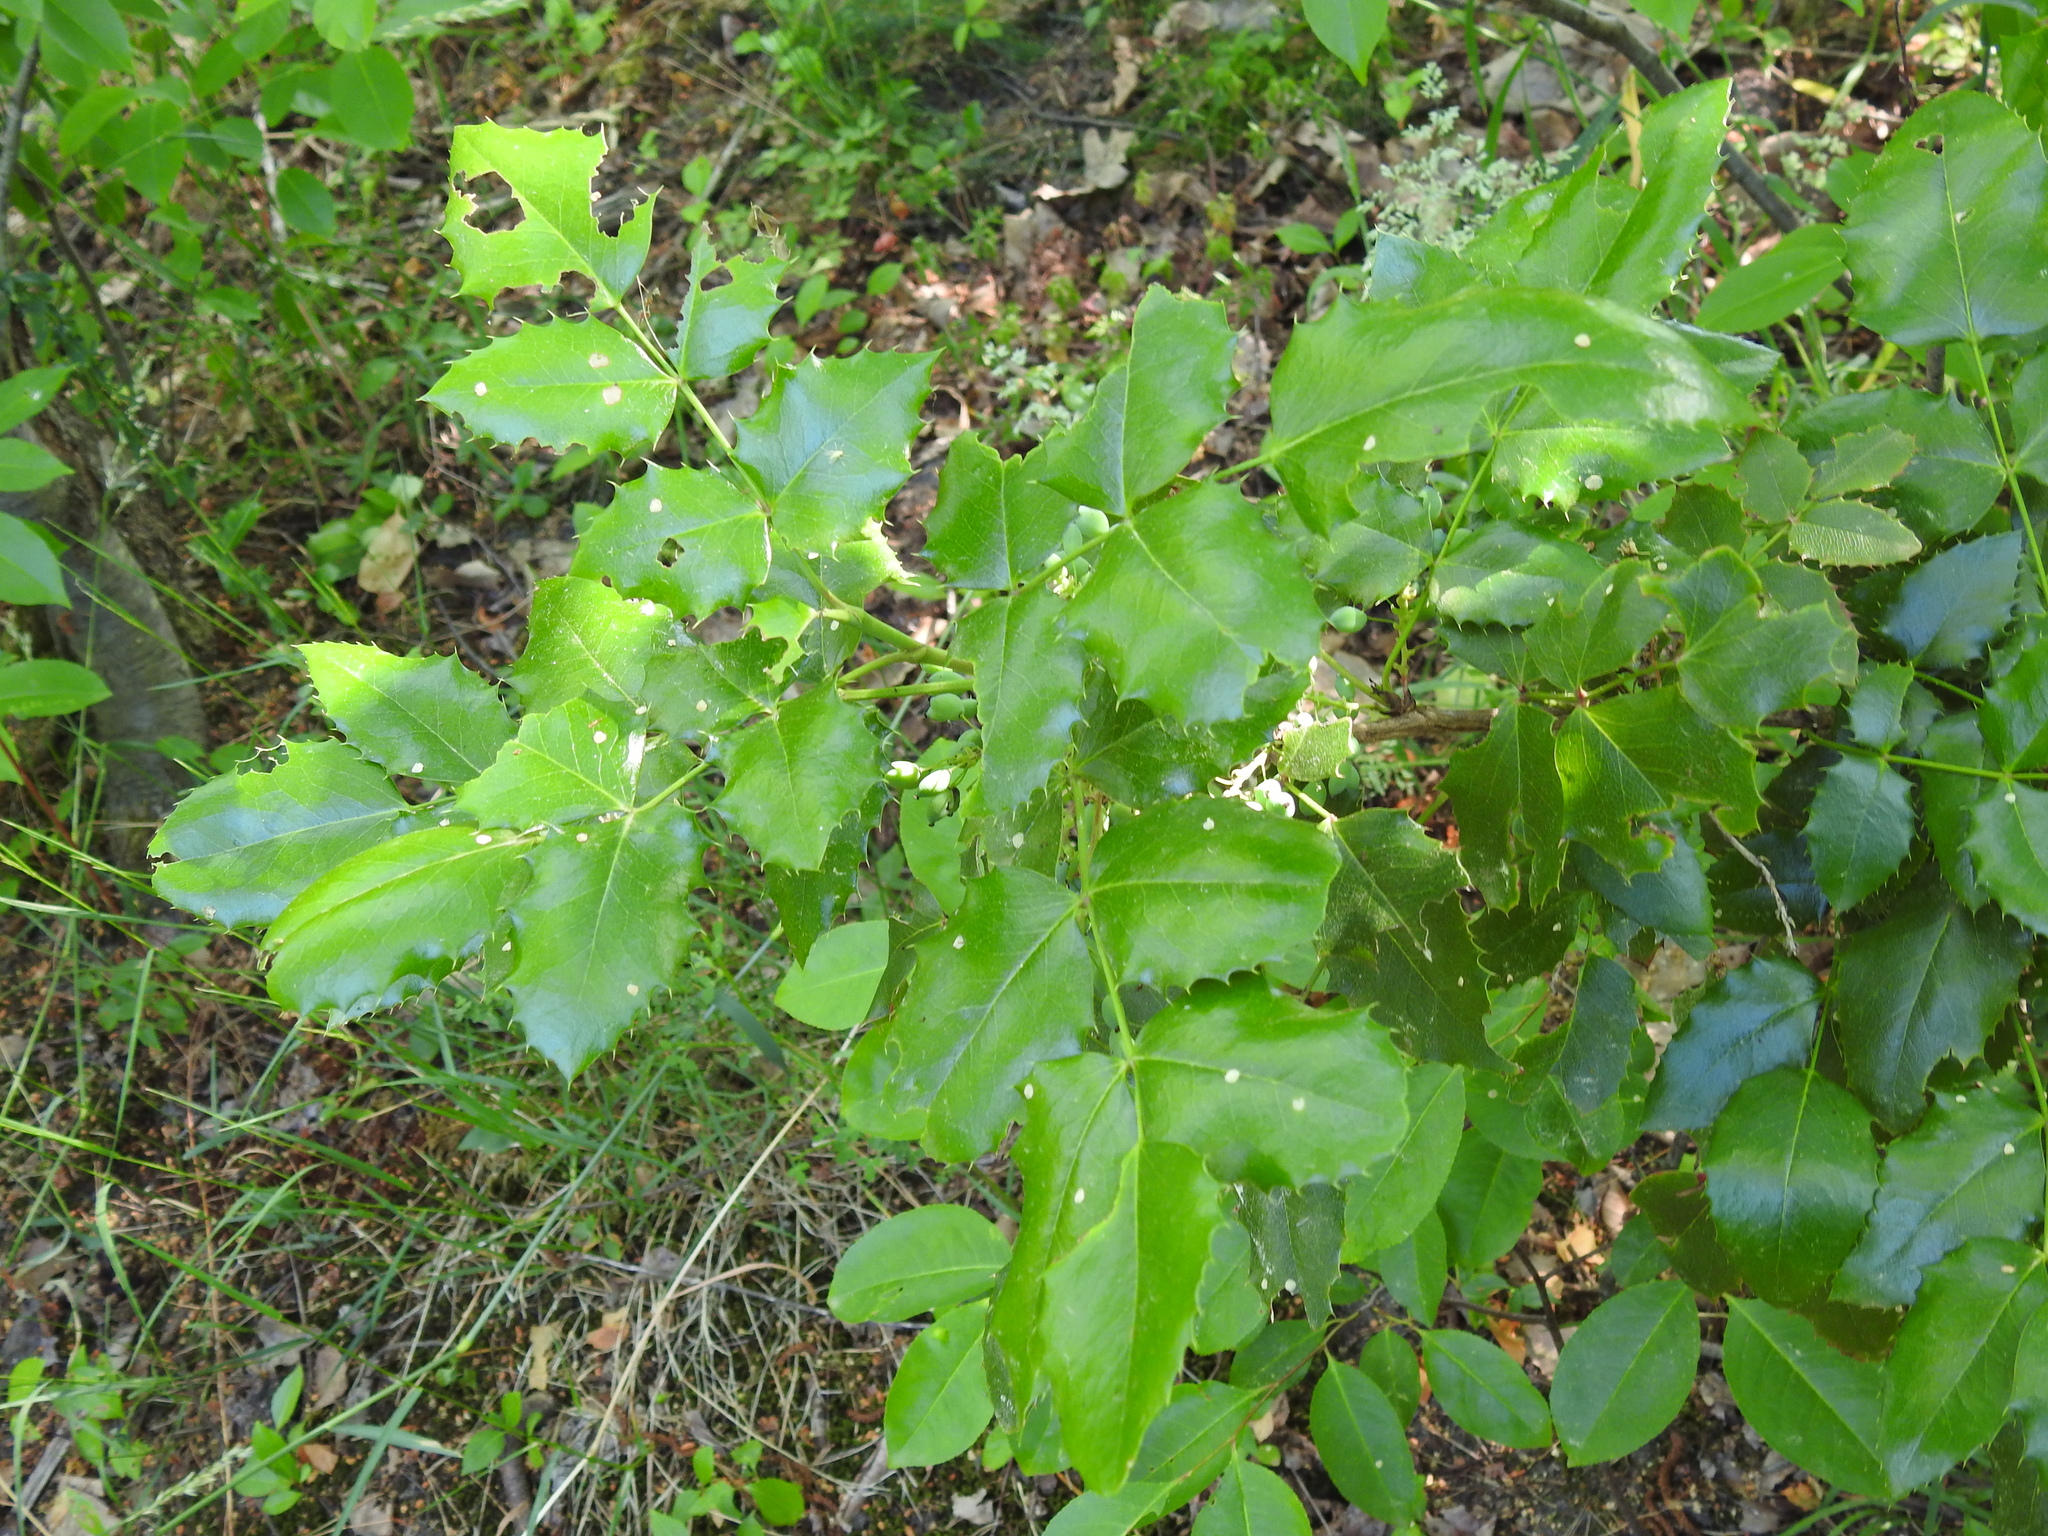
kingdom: Plantae
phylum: Tracheophyta
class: Magnoliopsida
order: Ranunculales
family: Berberidaceae
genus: Mahonia
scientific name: Mahonia aquifolium
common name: Oregon-grape
